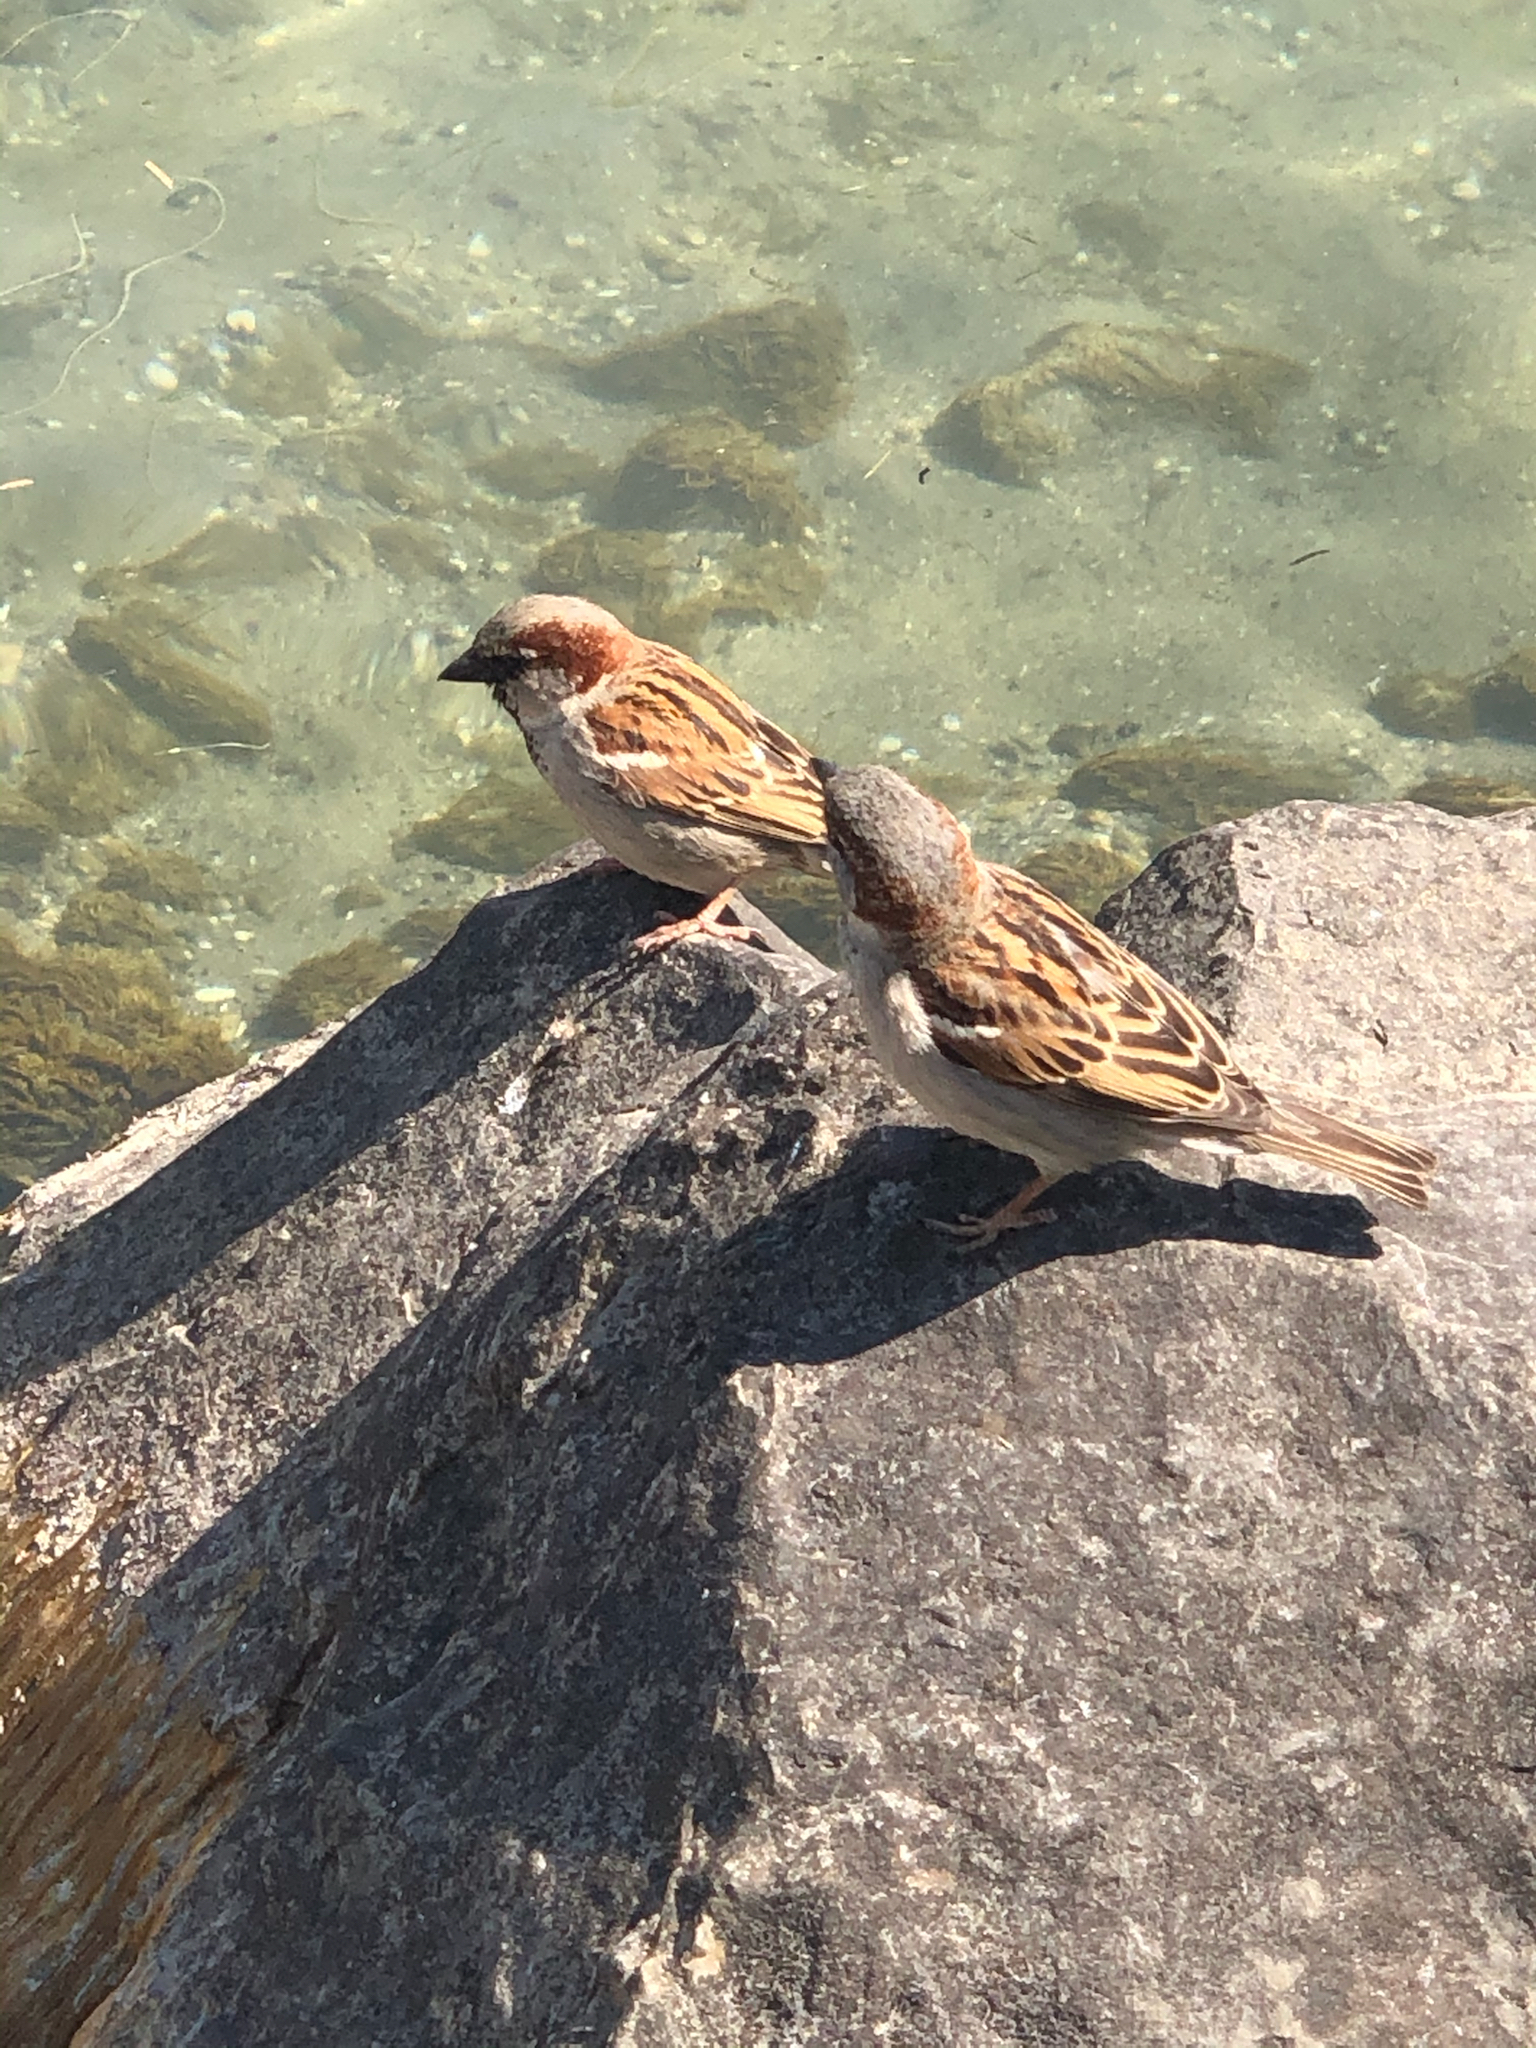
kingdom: Animalia
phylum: Chordata
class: Aves
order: Passeriformes
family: Passeridae
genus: Passer
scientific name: Passer domesticus
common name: House sparrow
